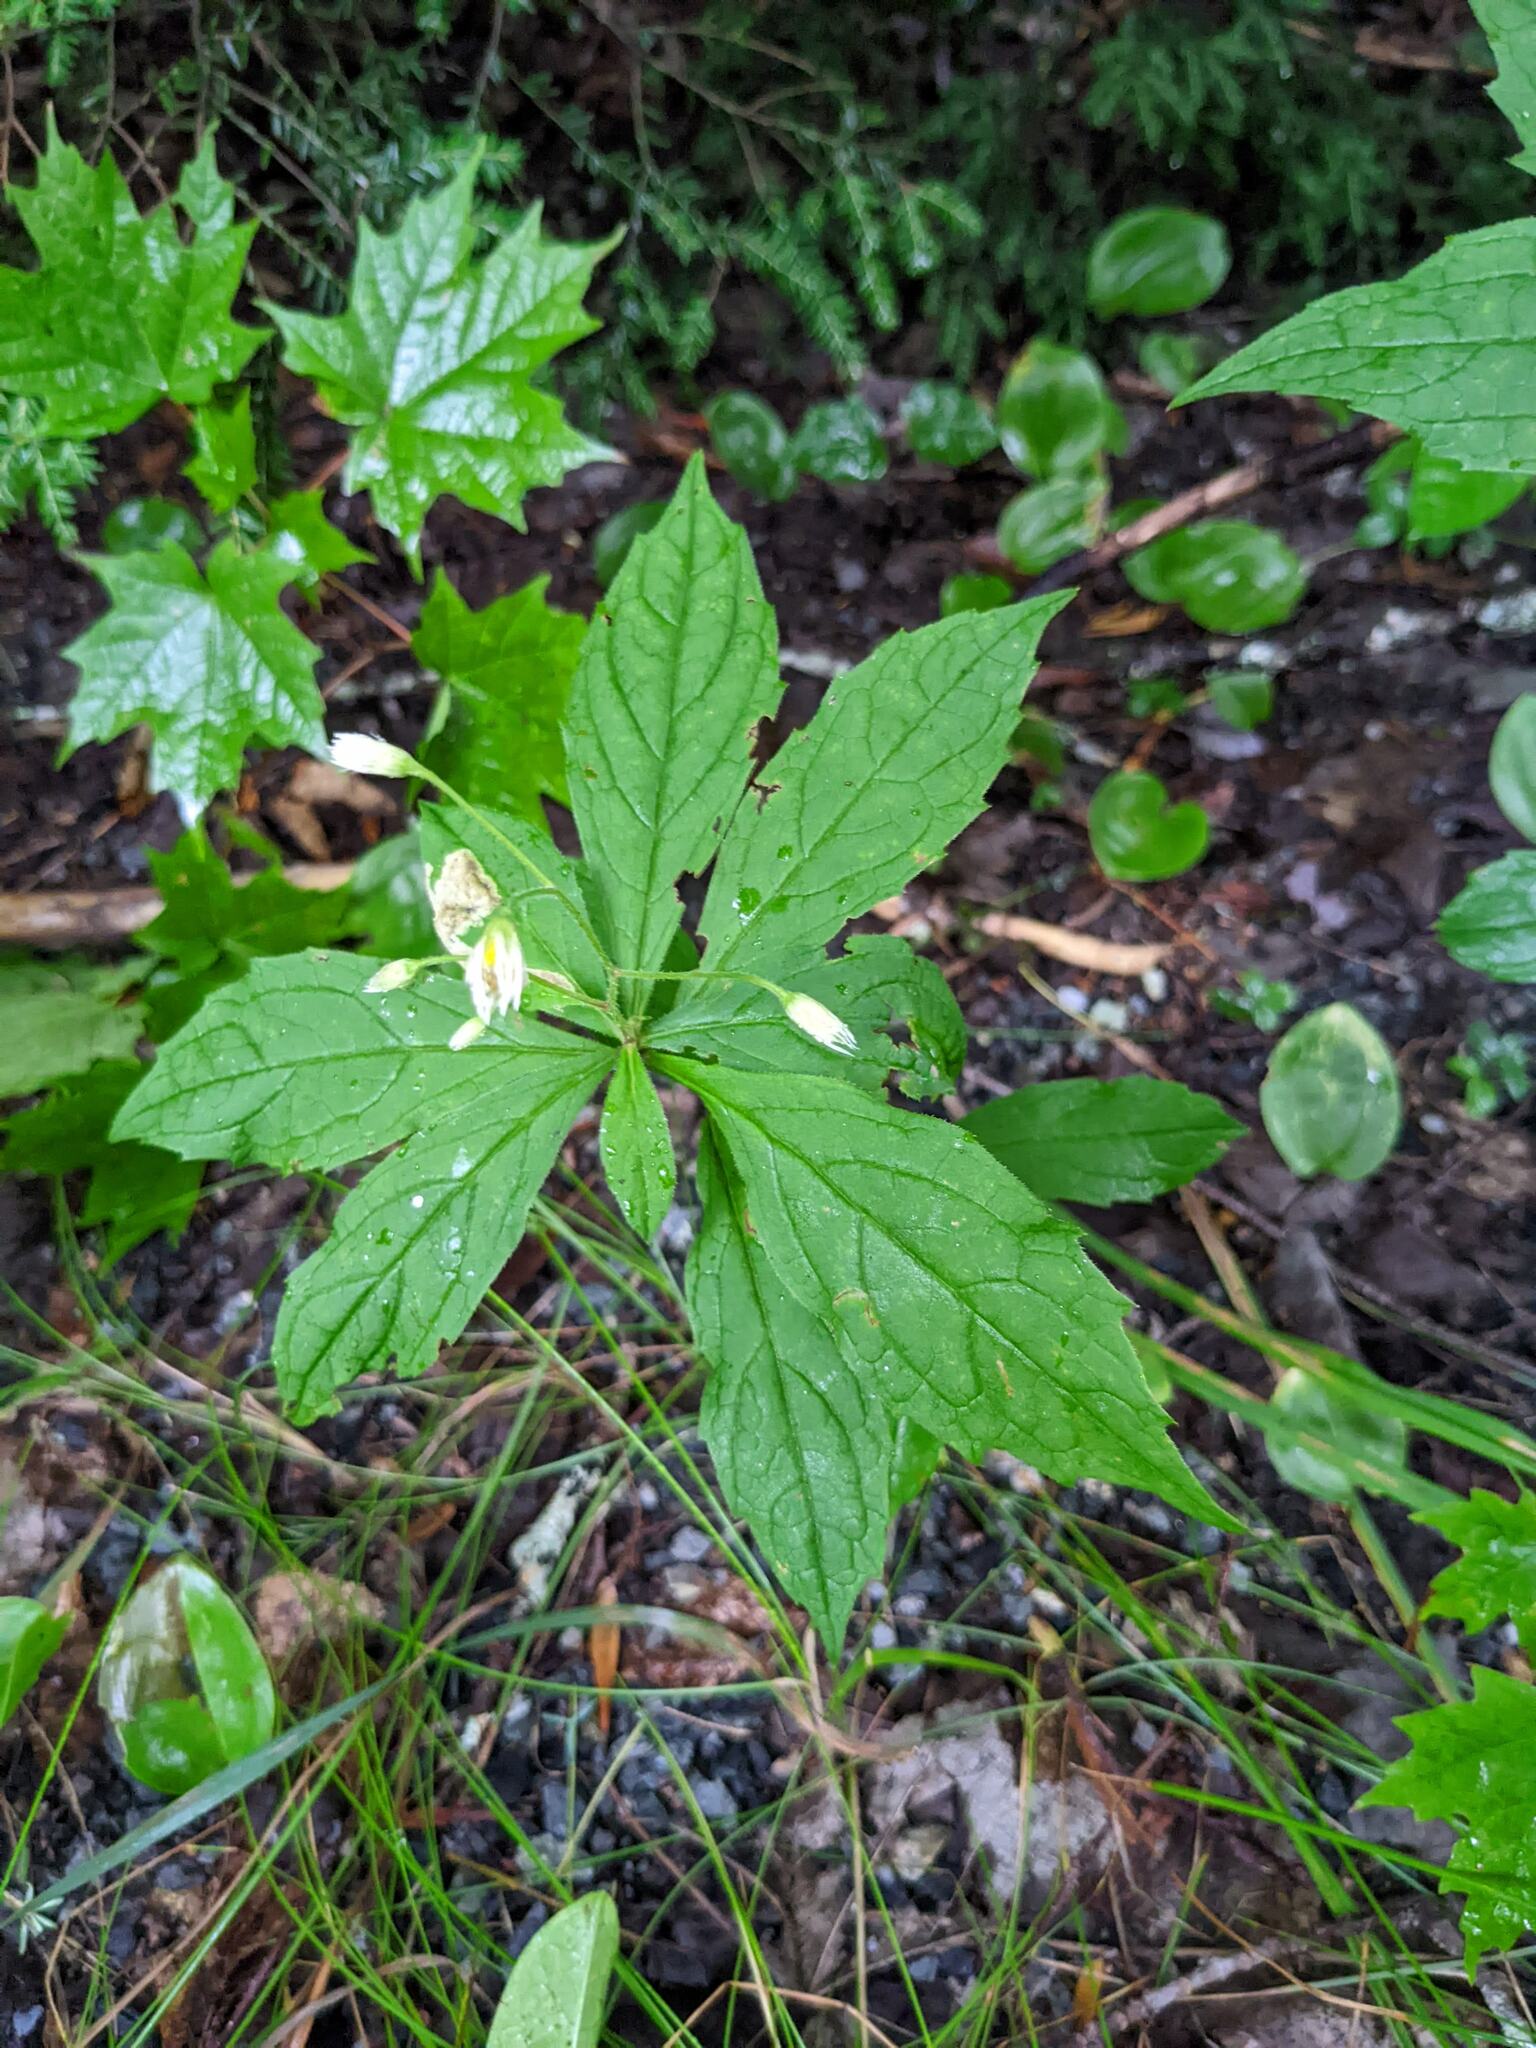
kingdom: Plantae
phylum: Tracheophyta
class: Magnoliopsida
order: Asterales
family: Asteraceae
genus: Oclemena
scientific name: Oclemena acuminata
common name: Mountain aster
